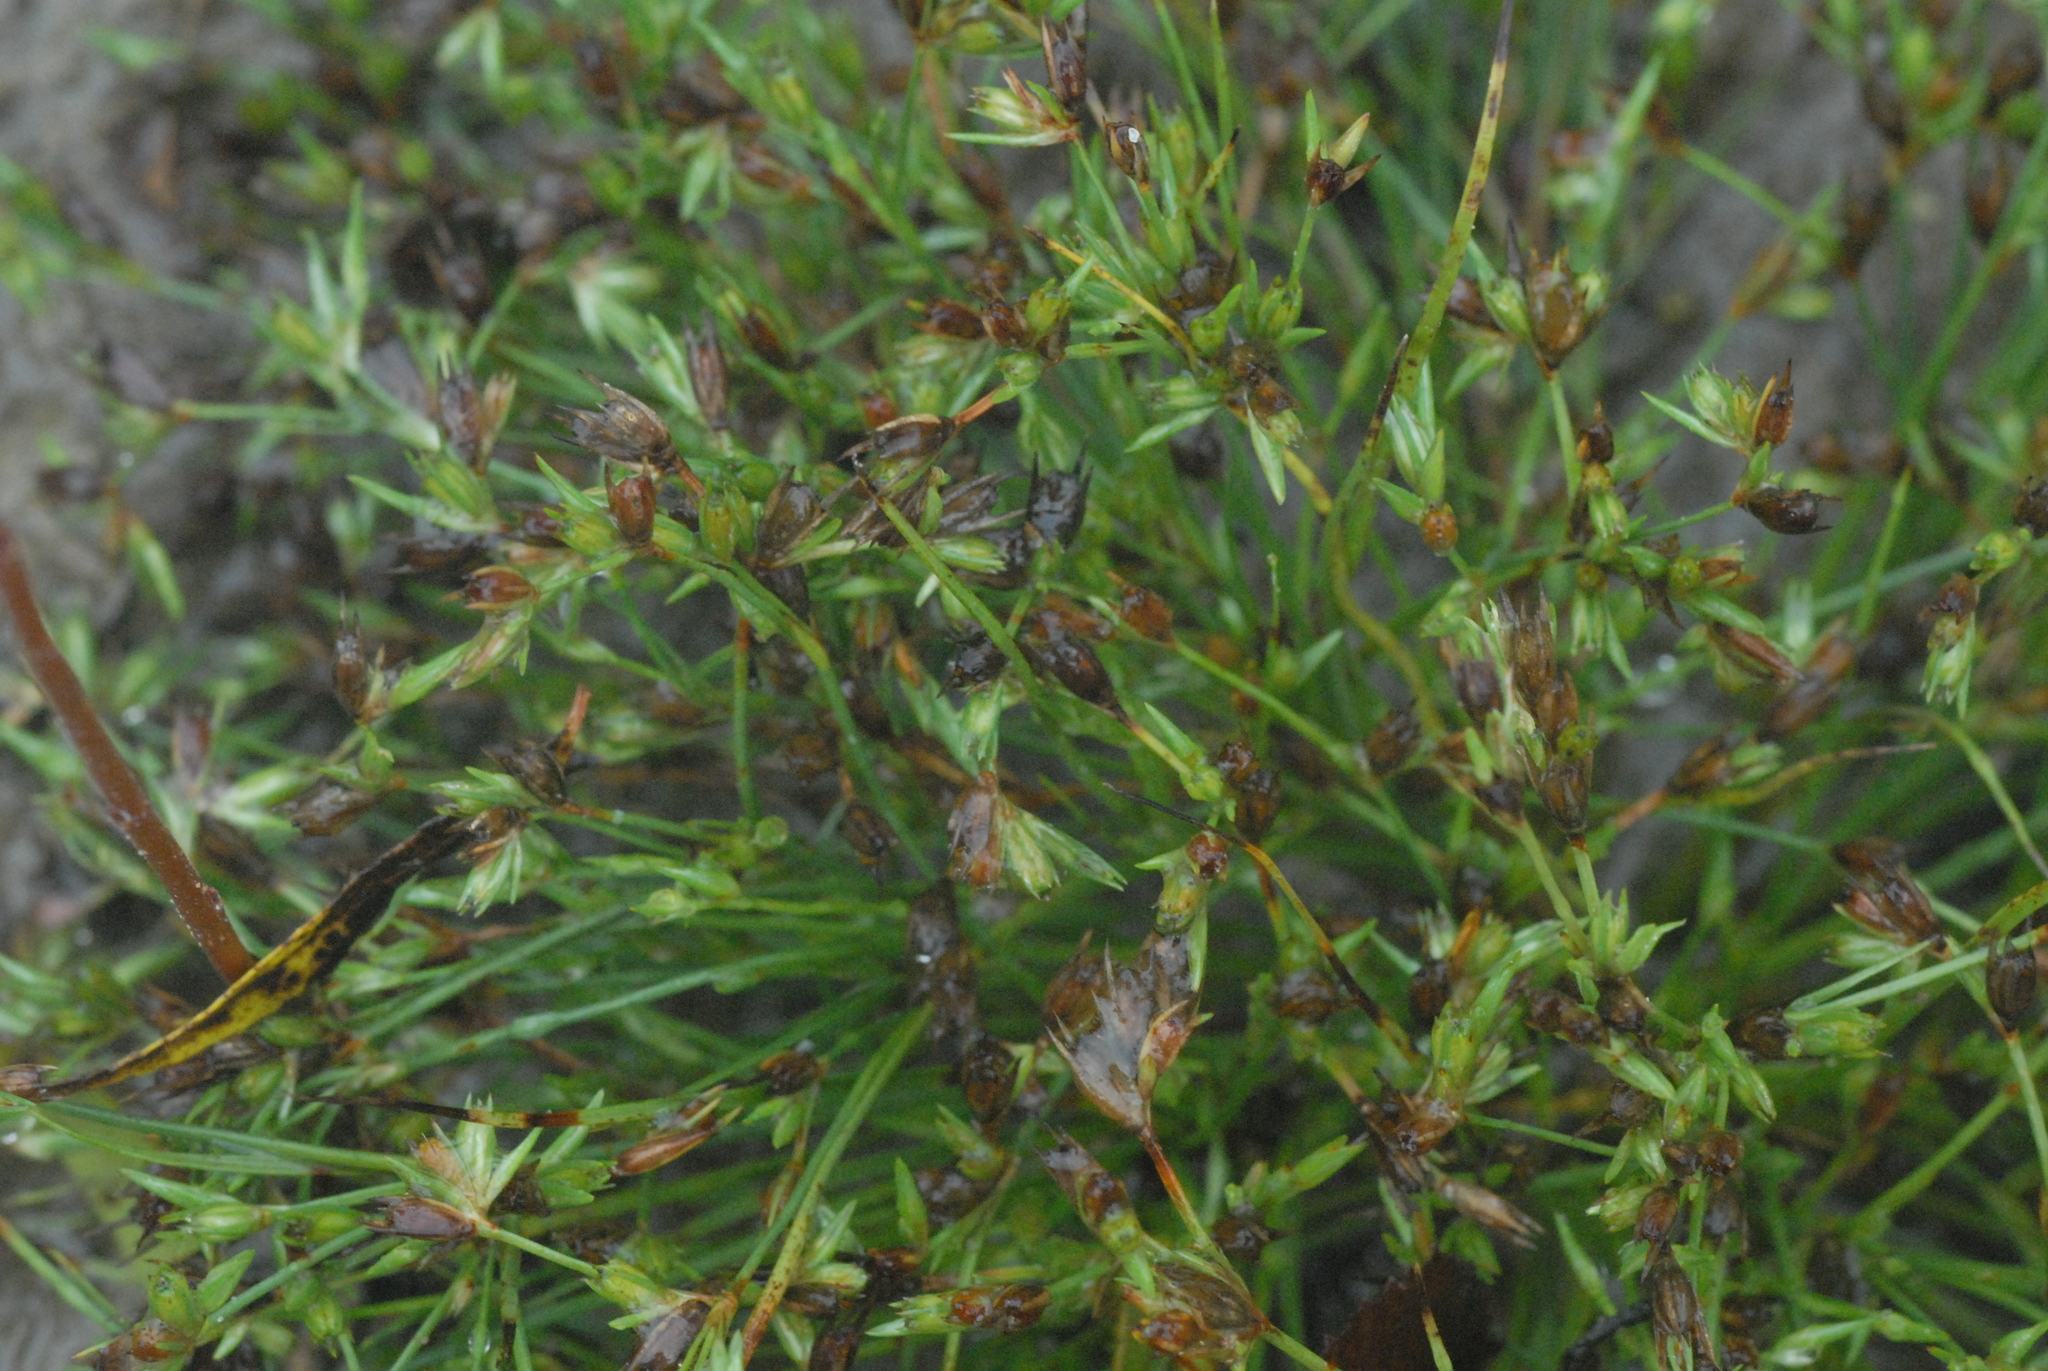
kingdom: Plantae
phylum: Tracheophyta
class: Liliopsida
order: Poales
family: Juncaceae
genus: Juncus
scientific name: Juncus bufonius
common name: Toad rush
